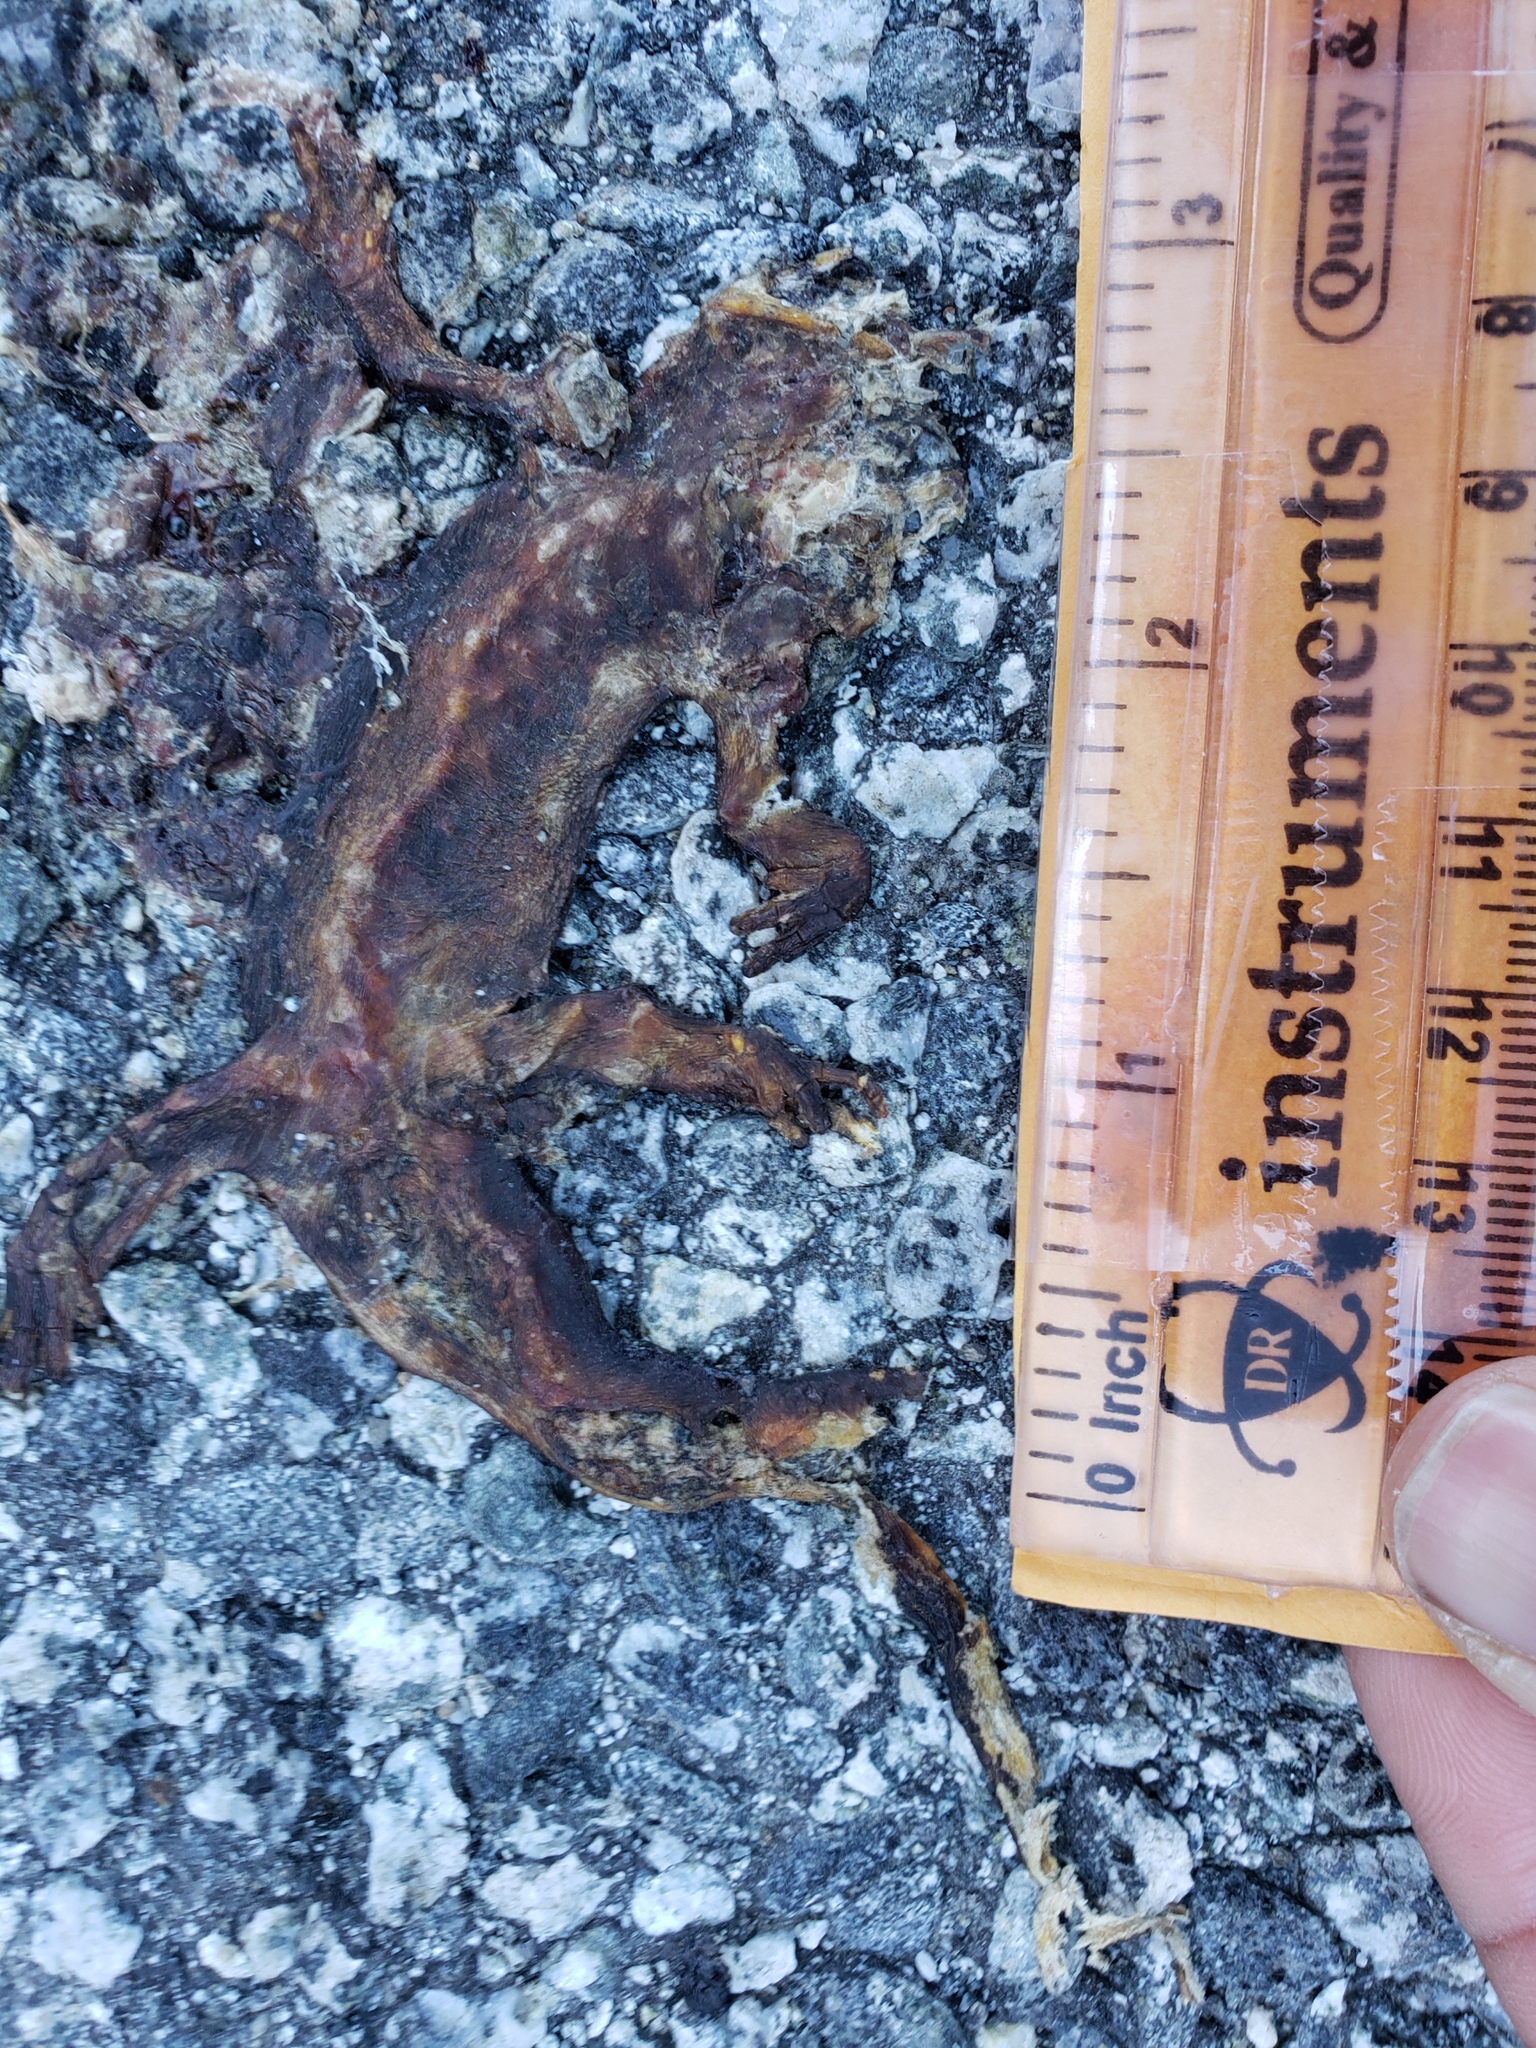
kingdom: Animalia
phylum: Chordata
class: Amphibia
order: Caudata
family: Salamandridae
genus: Taricha
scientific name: Taricha
